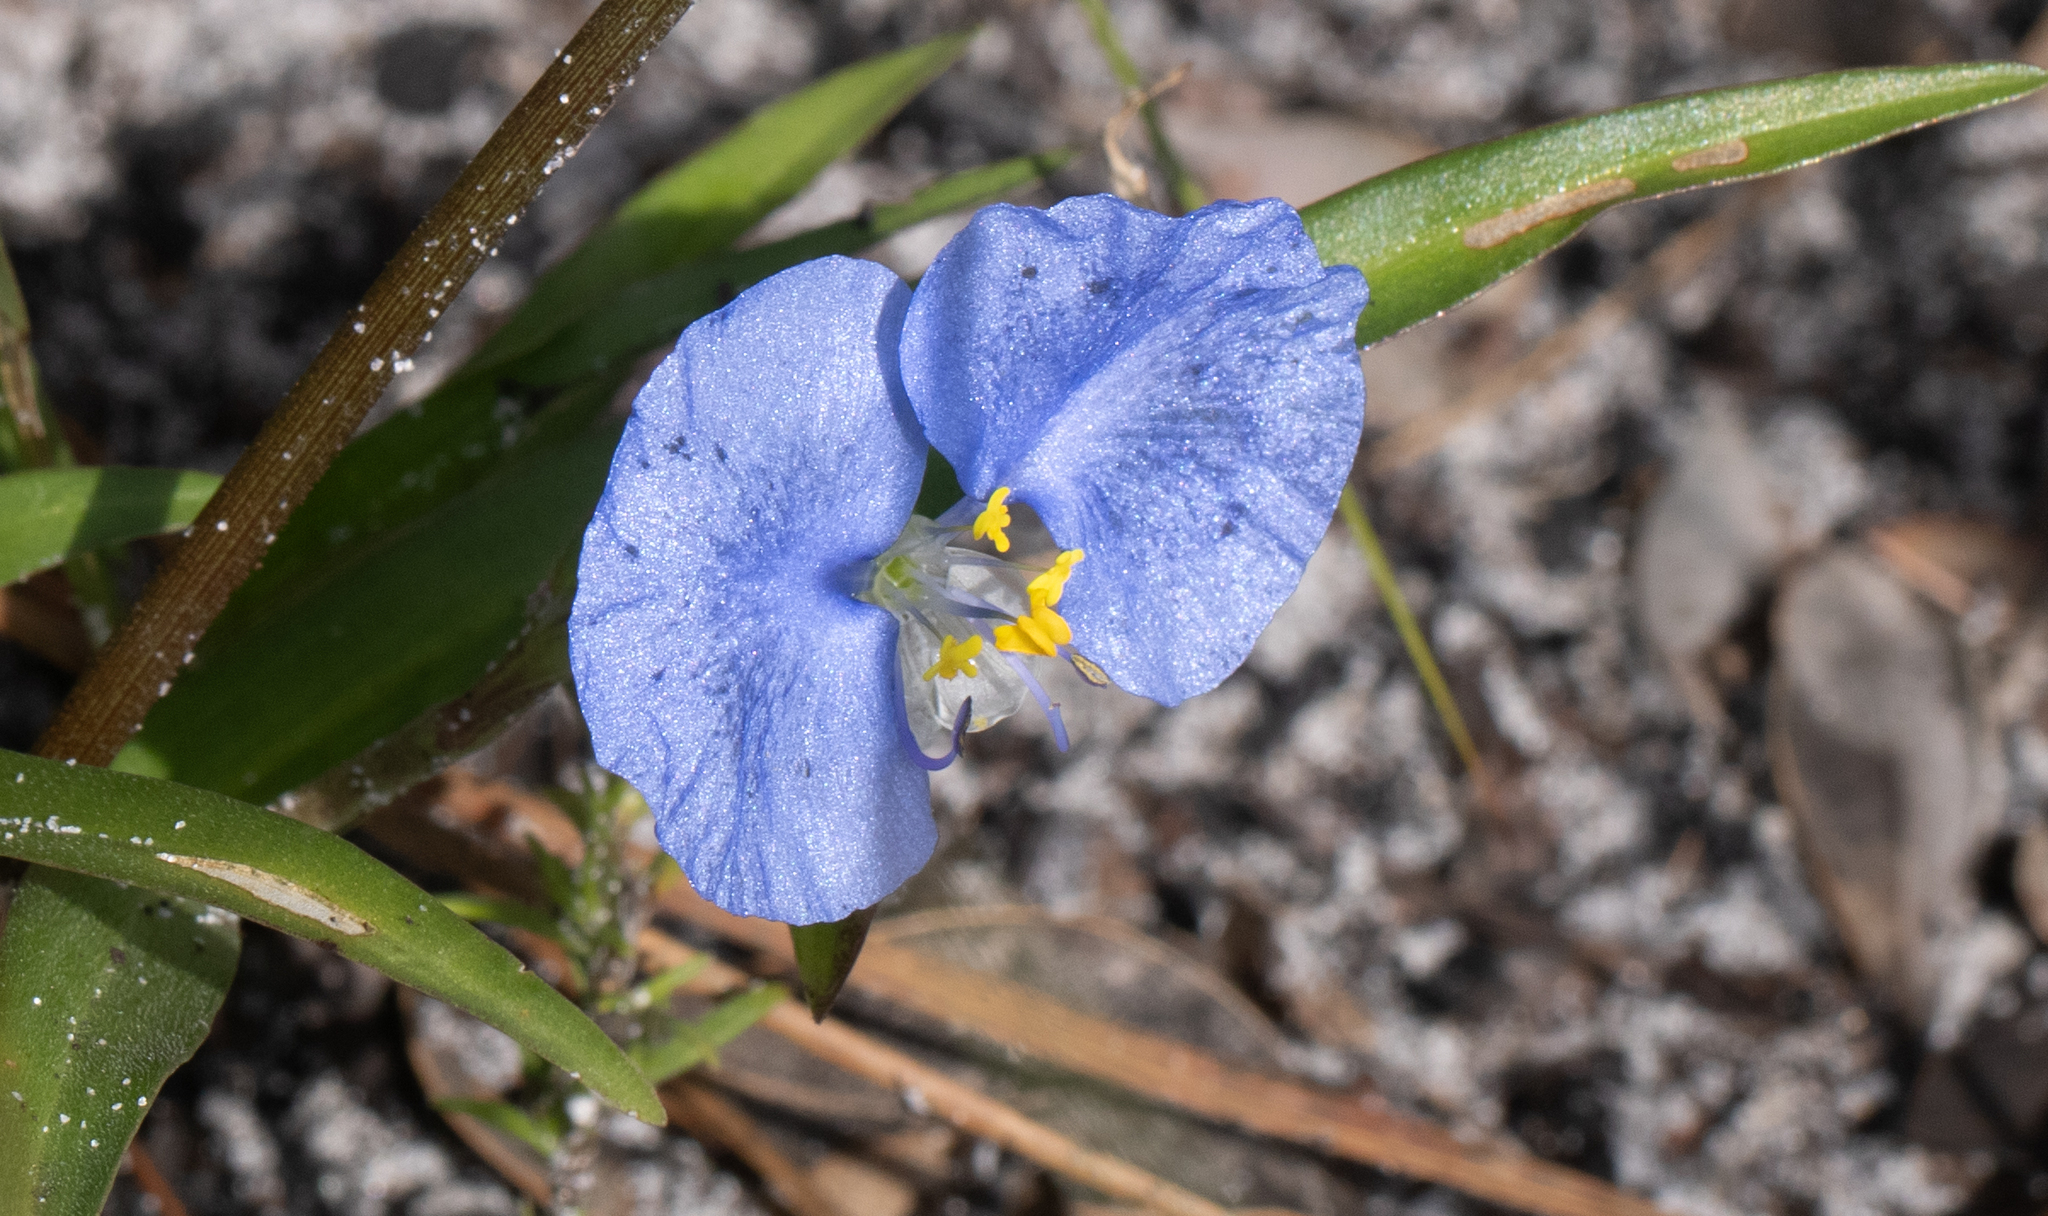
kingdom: Plantae
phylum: Tracheophyta
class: Liliopsida
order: Commelinales
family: Commelinaceae
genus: Commelina
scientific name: Commelina erecta
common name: Blousel blommetjie
